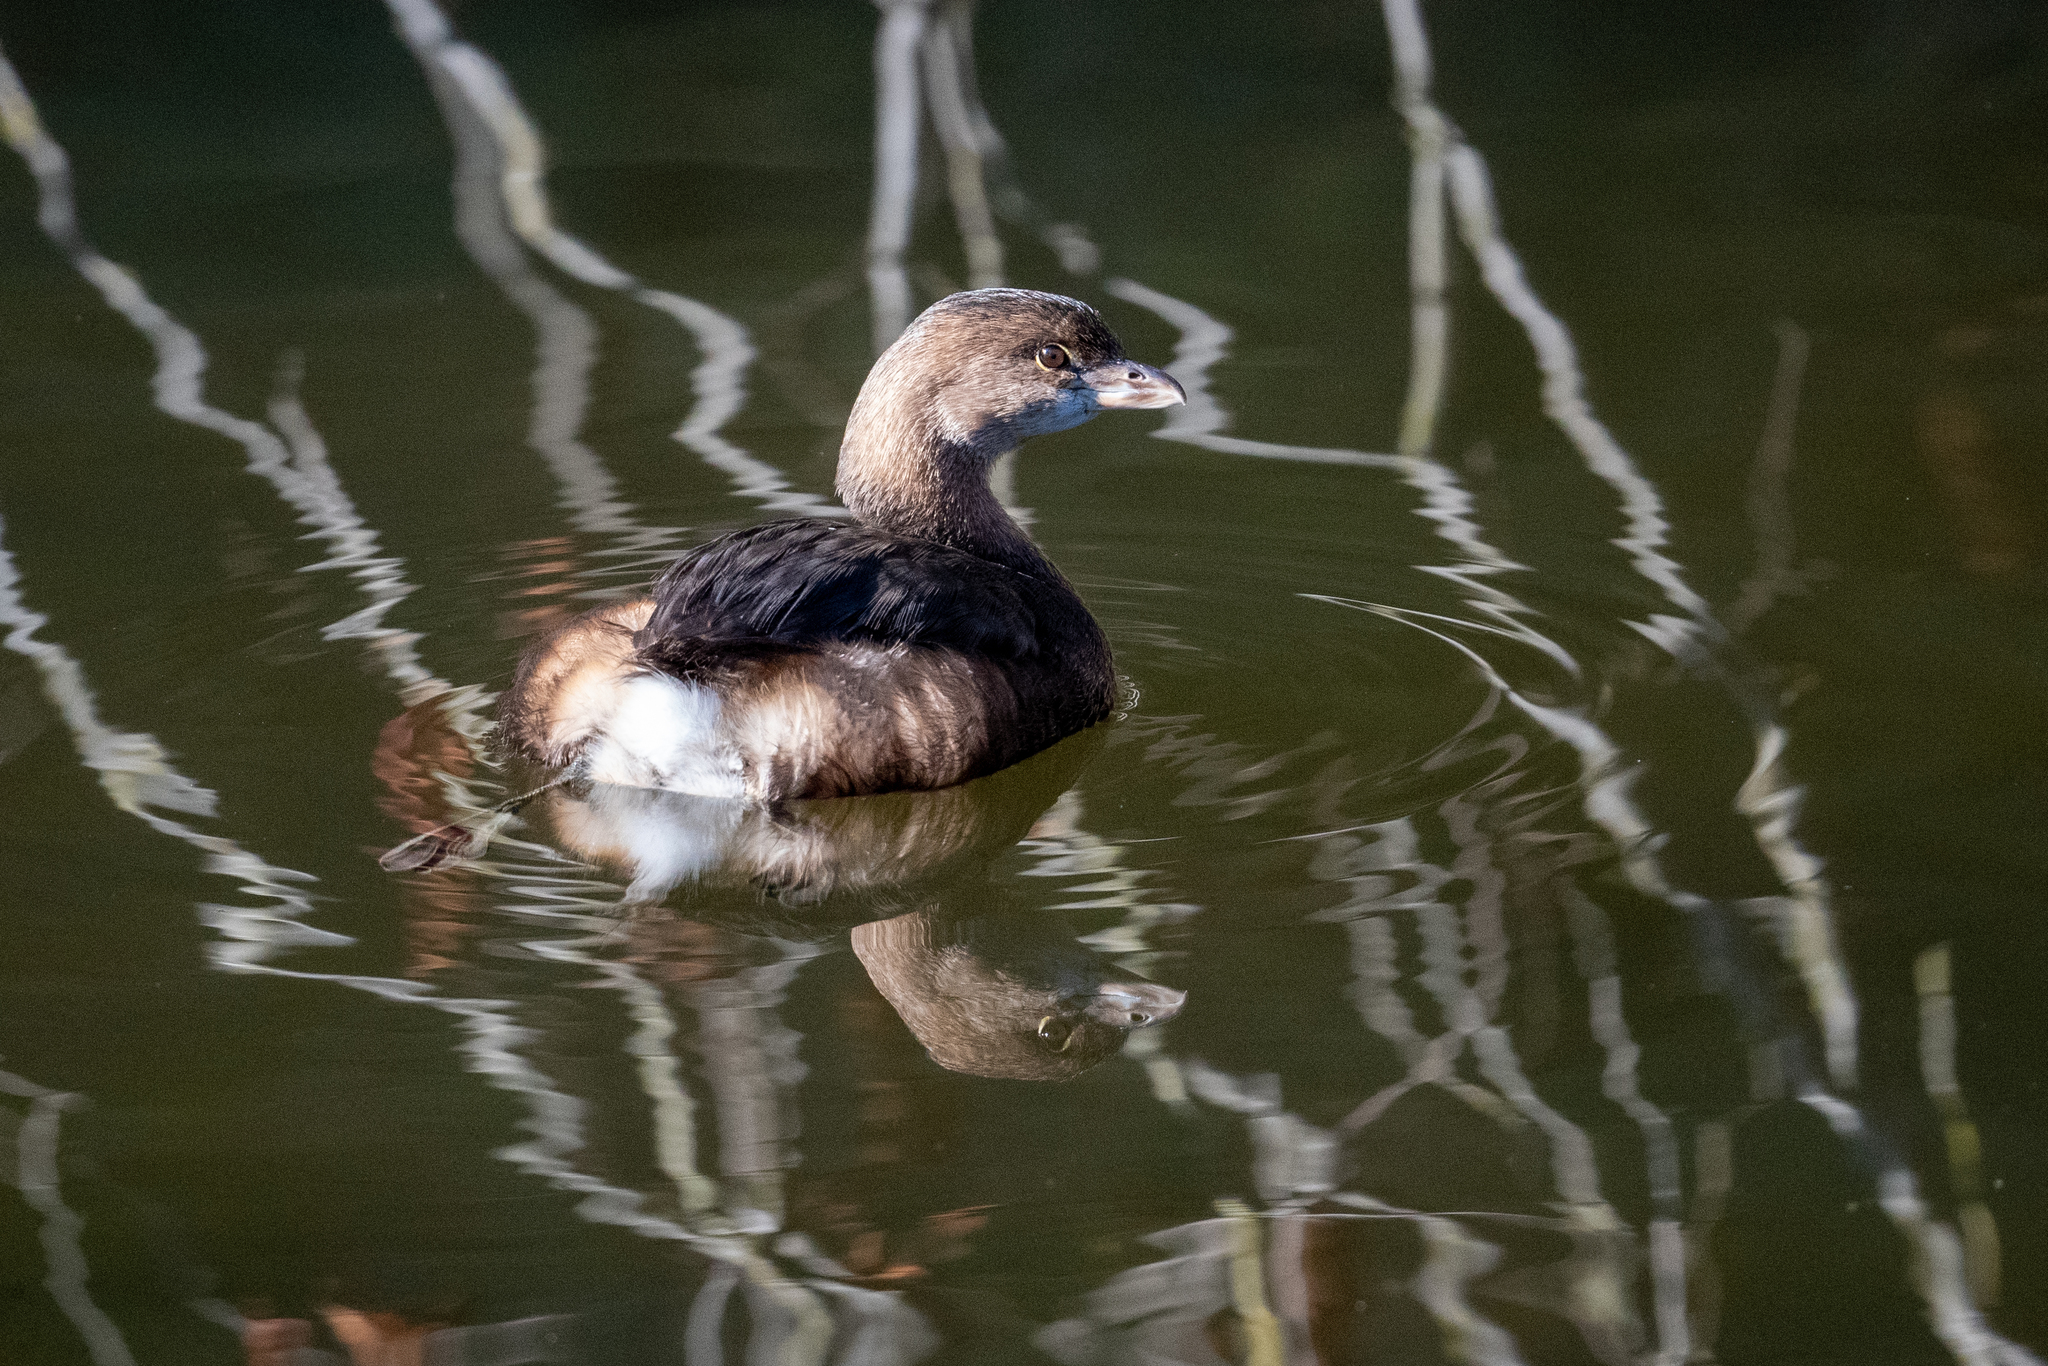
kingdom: Animalia
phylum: Chordata
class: Aves
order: Podicipediformes
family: Podicipedidae
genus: Podilymbus
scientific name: Podilymbus podiceps
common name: Pied-billed grebe
